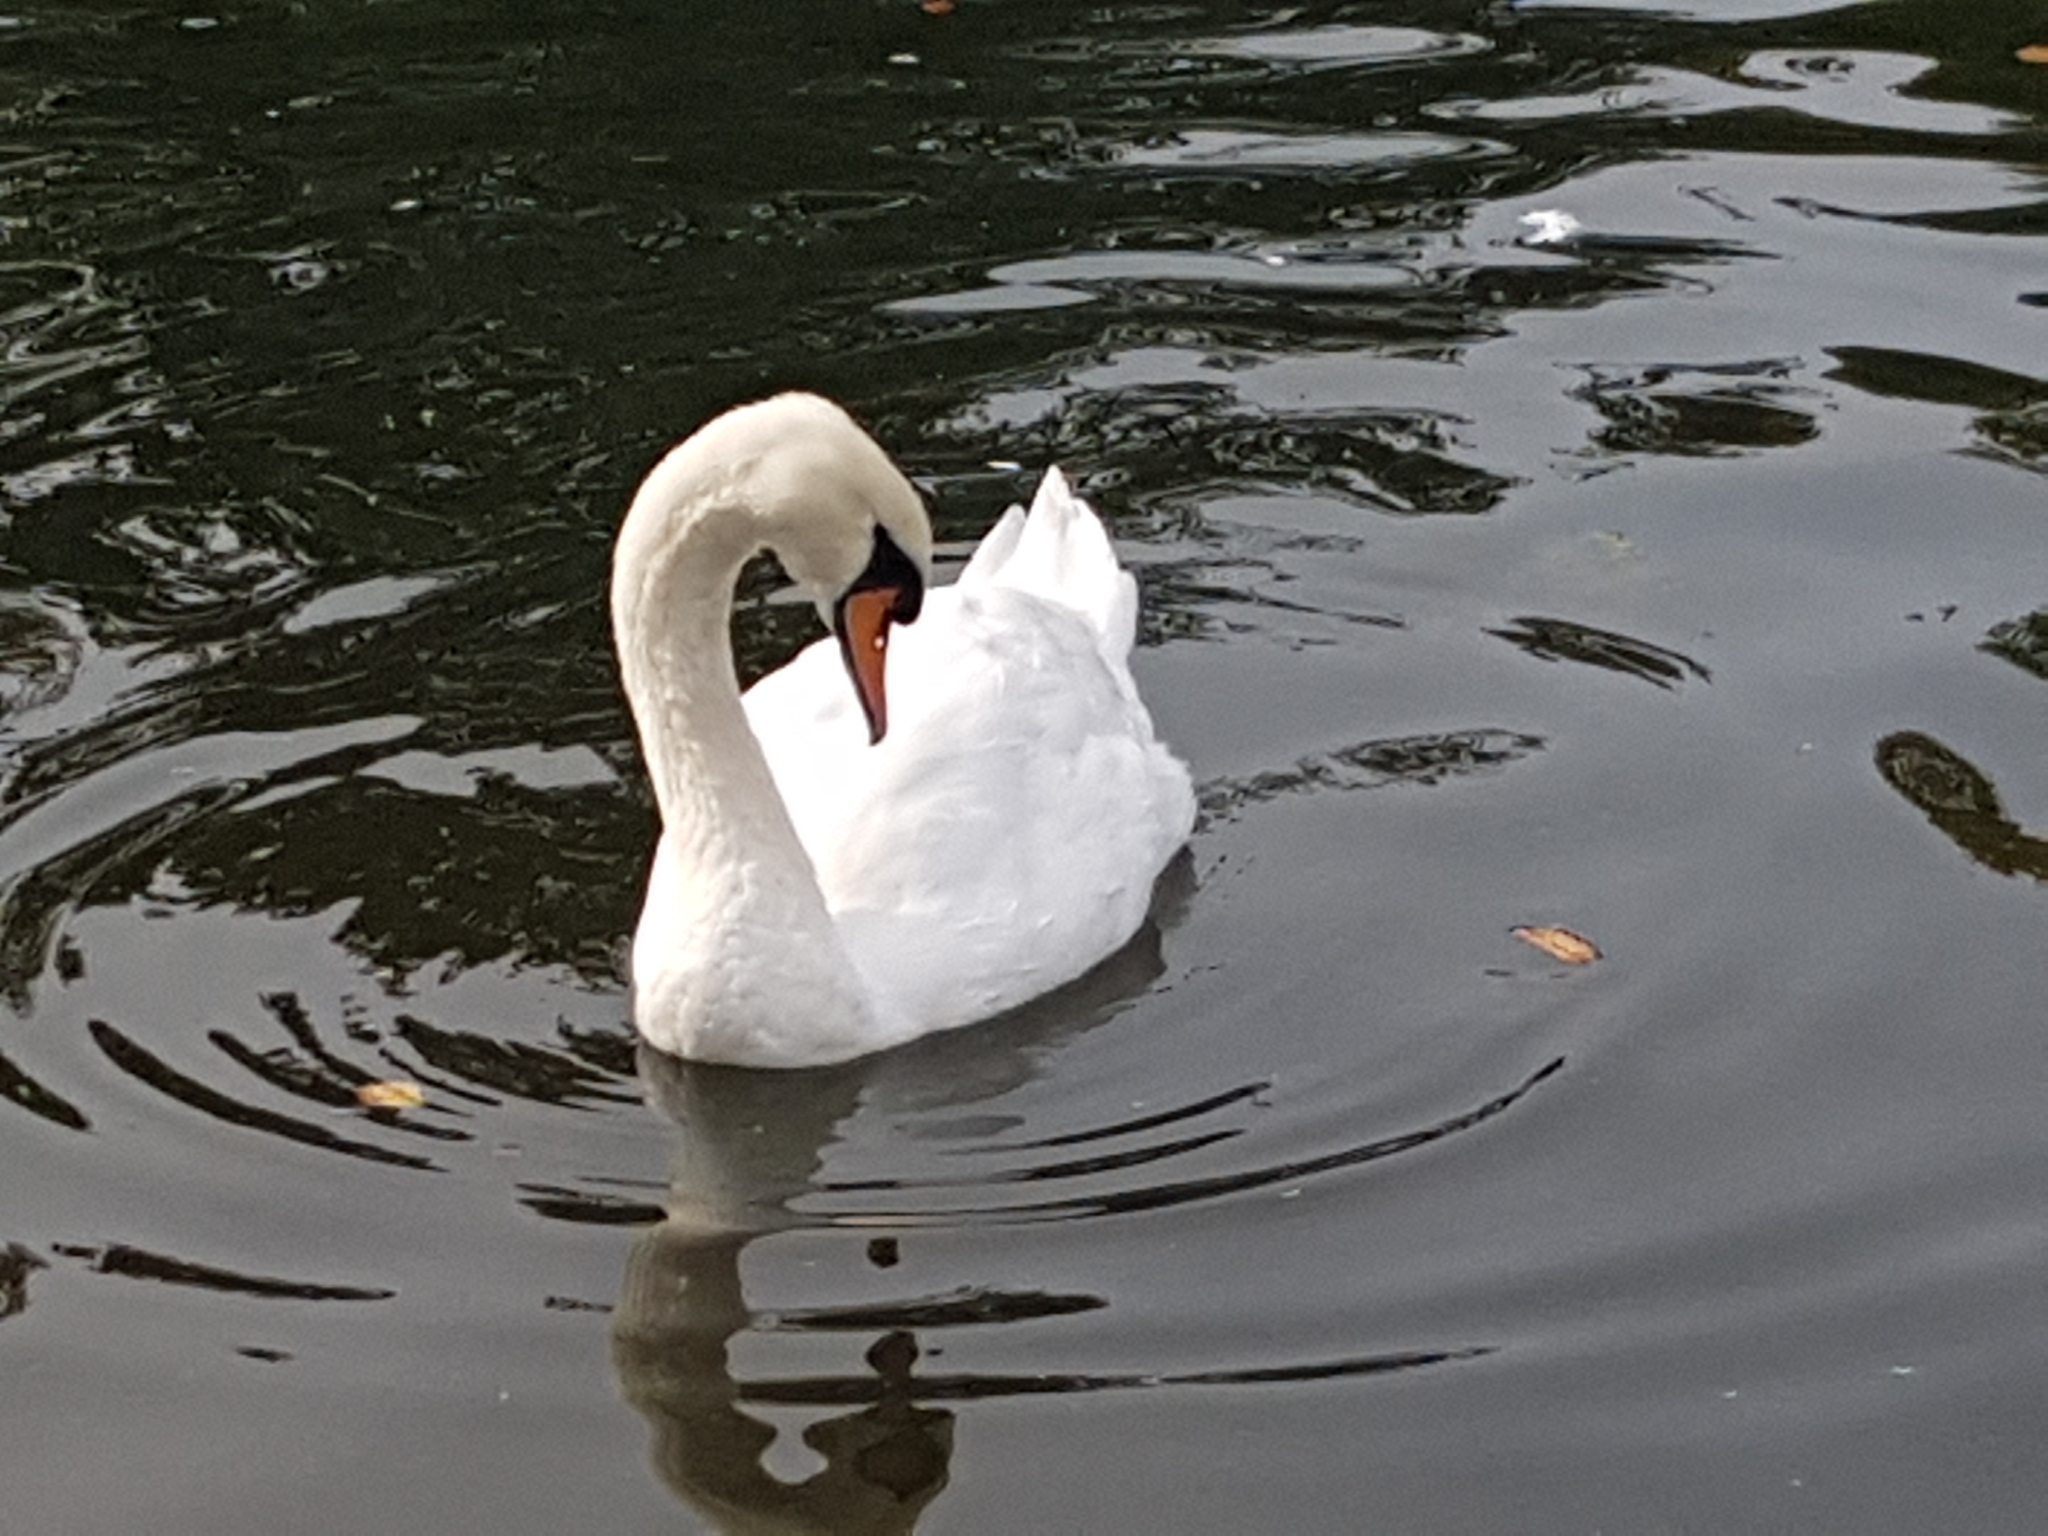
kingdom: Animalia
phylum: Chordata
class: Aves
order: Anseriformes
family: Anatidae
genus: Cygnus
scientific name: Cygnus olor
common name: Mute swan
